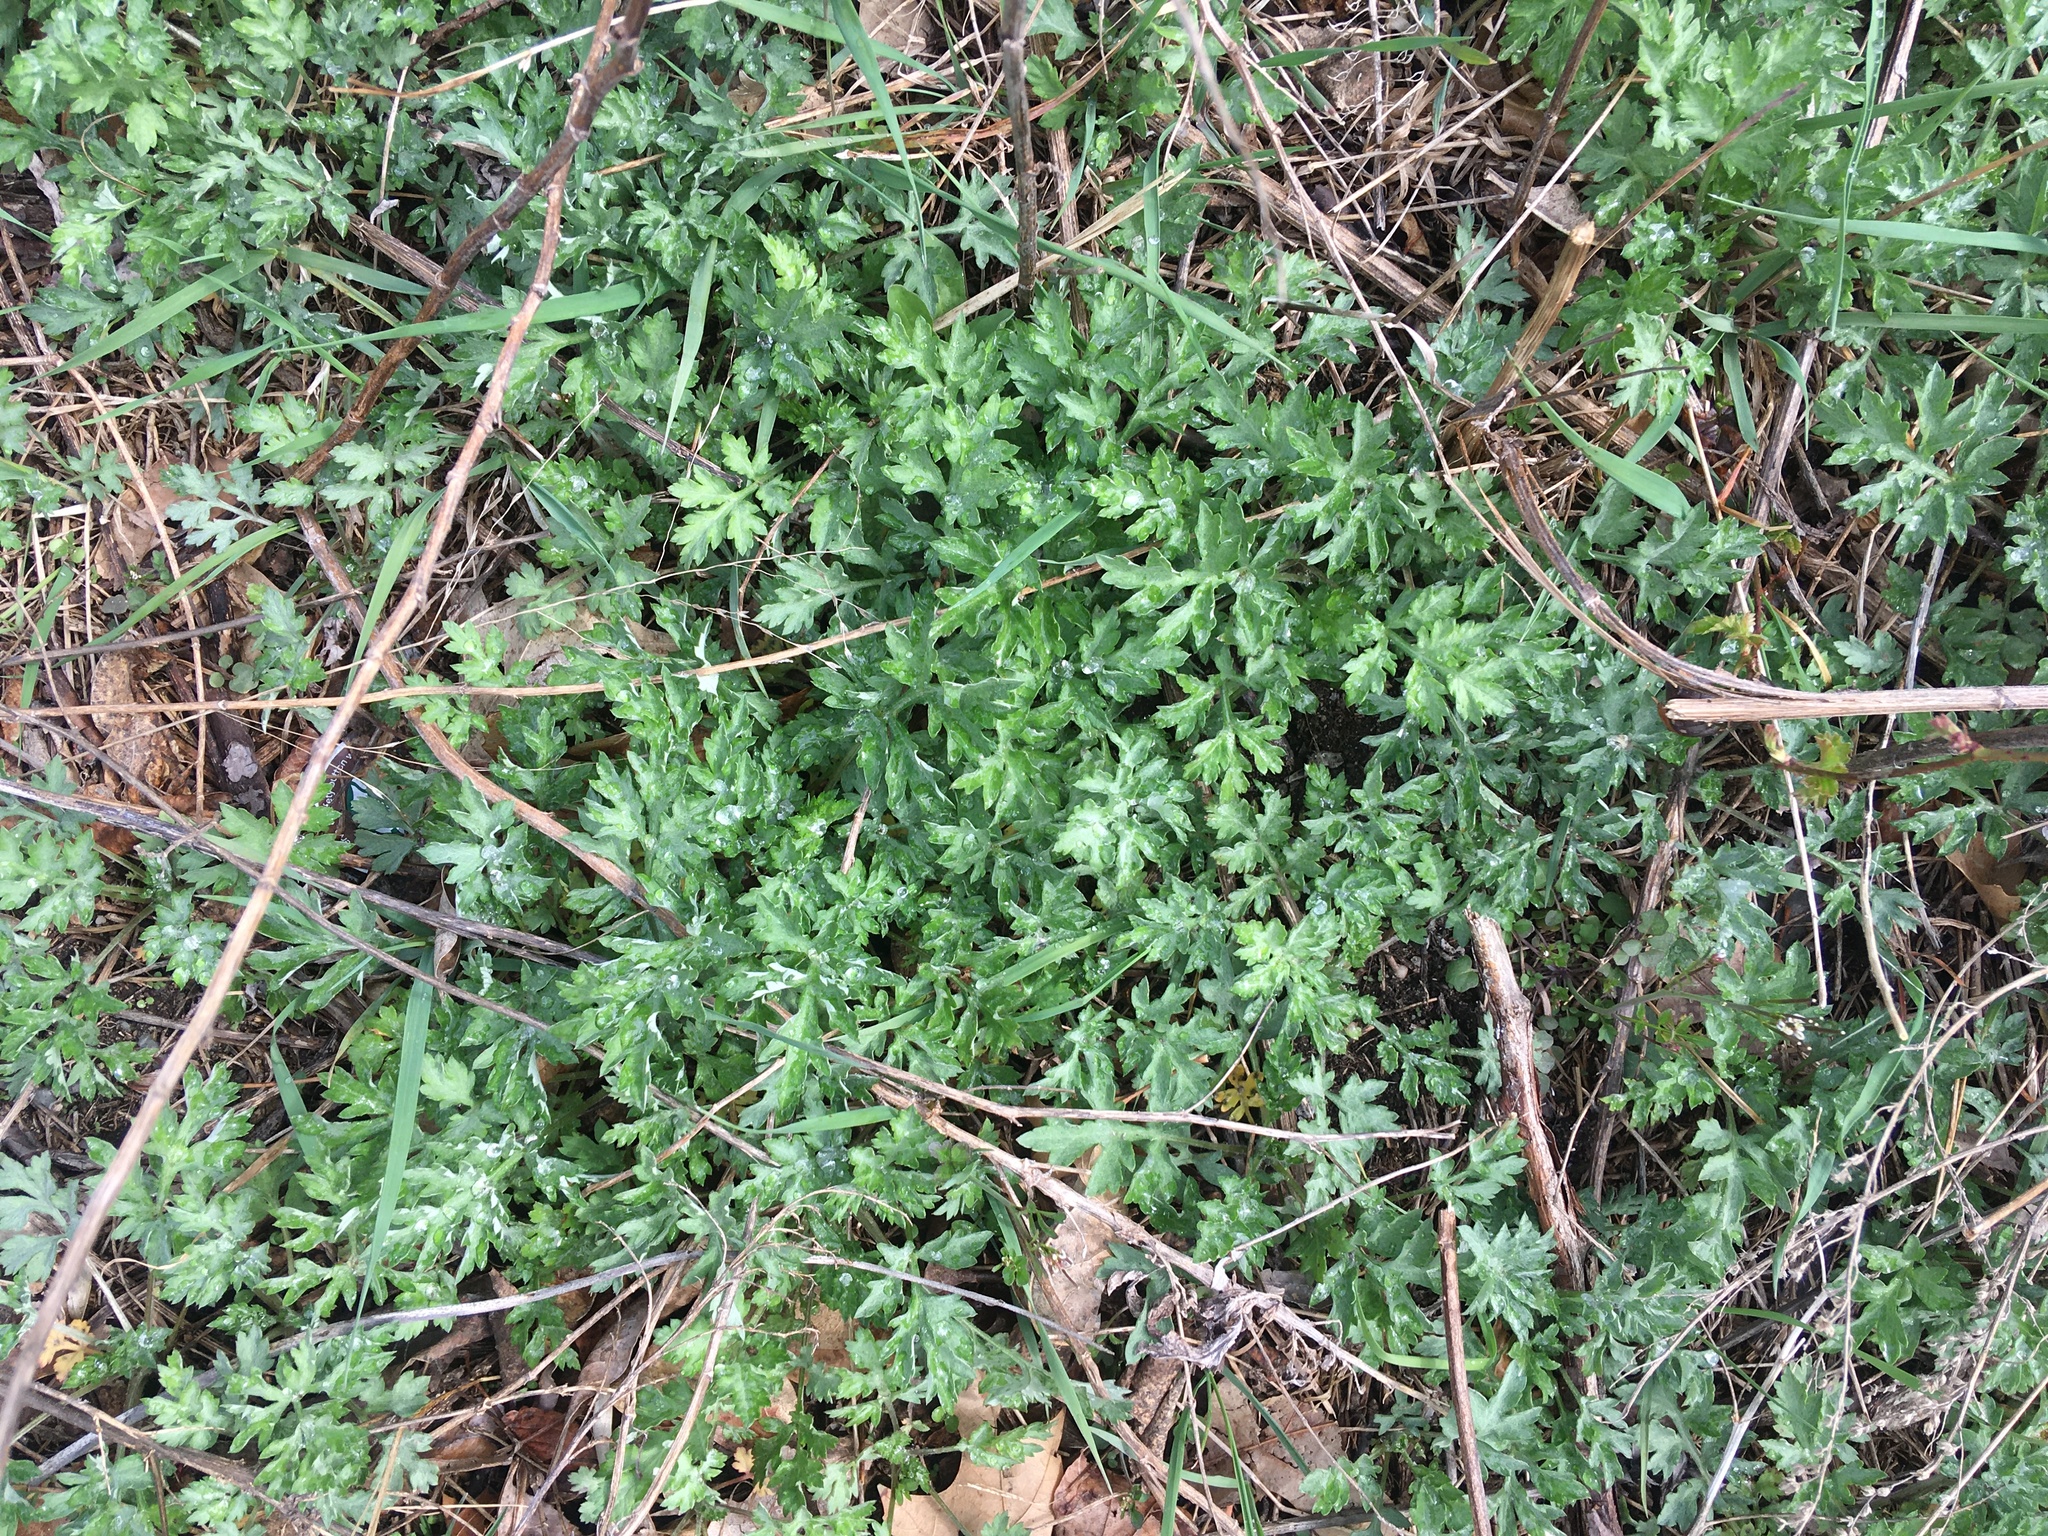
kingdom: Plantae
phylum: Tracheophyta
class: Magnoliopsida
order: Asterales
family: Asteraceae
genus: Artemisia
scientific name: Artemisia vulgaris
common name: Mugwort
